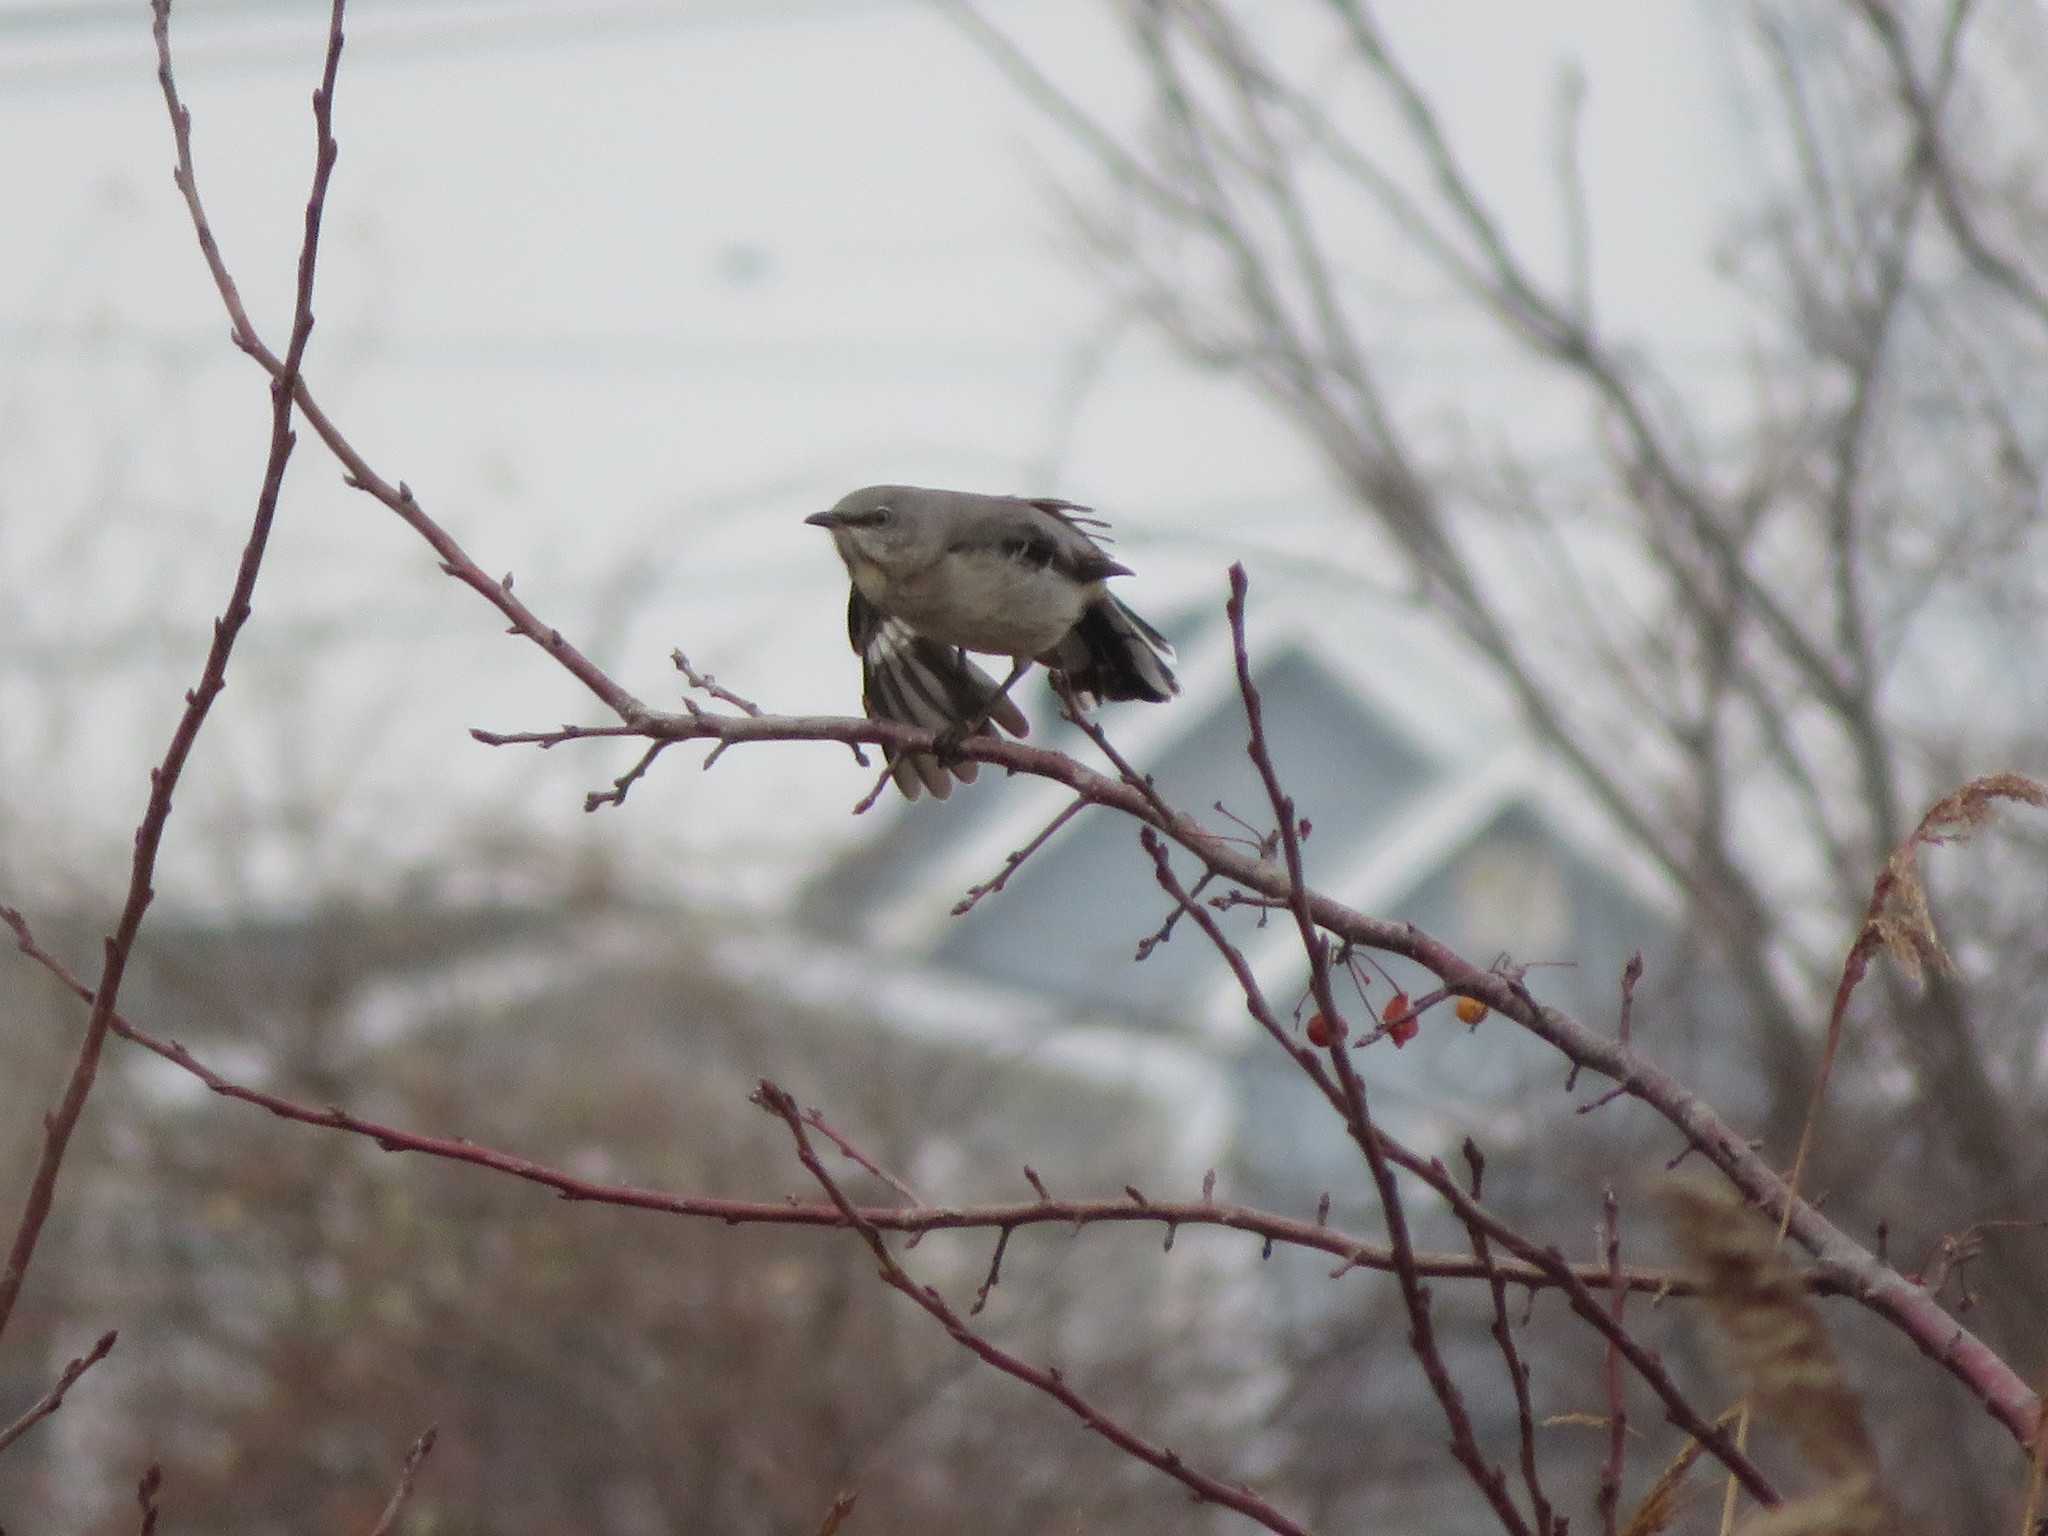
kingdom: Animalia
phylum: Chordata
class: Aves
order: Passeriformes
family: Mimidae
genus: Mimus
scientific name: Mimus polyglottos
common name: Northern mockingbird
